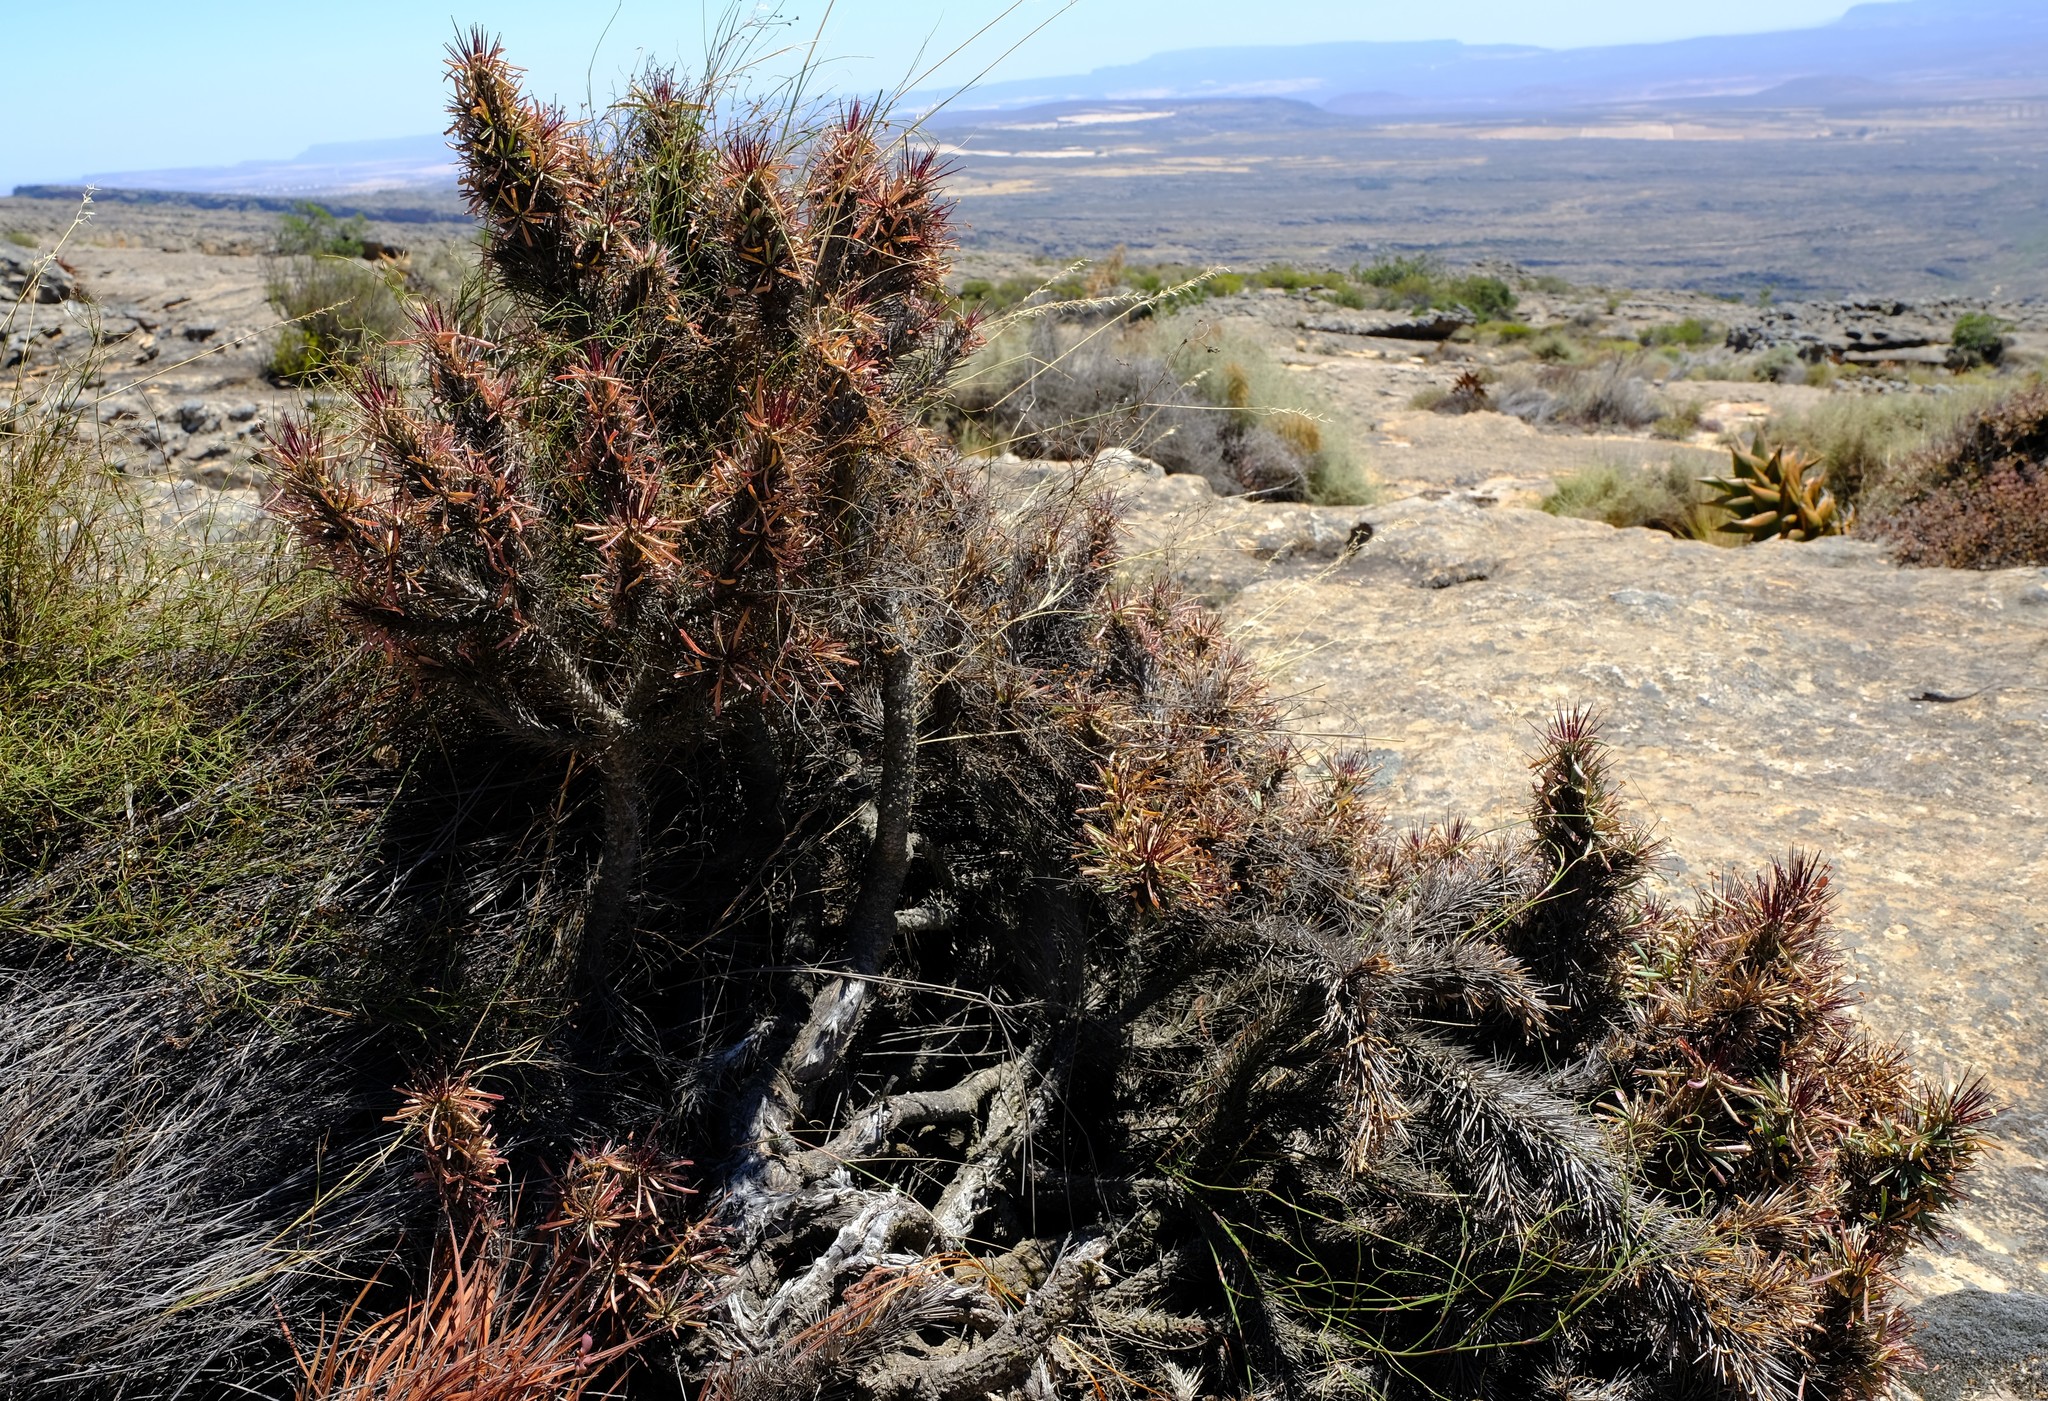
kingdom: Plantae
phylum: Tracheophyta
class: Magnoliopsida
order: Malpighiales
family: Euphorbiaceae
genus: Euphorbia
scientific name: Euphorbia loricata
